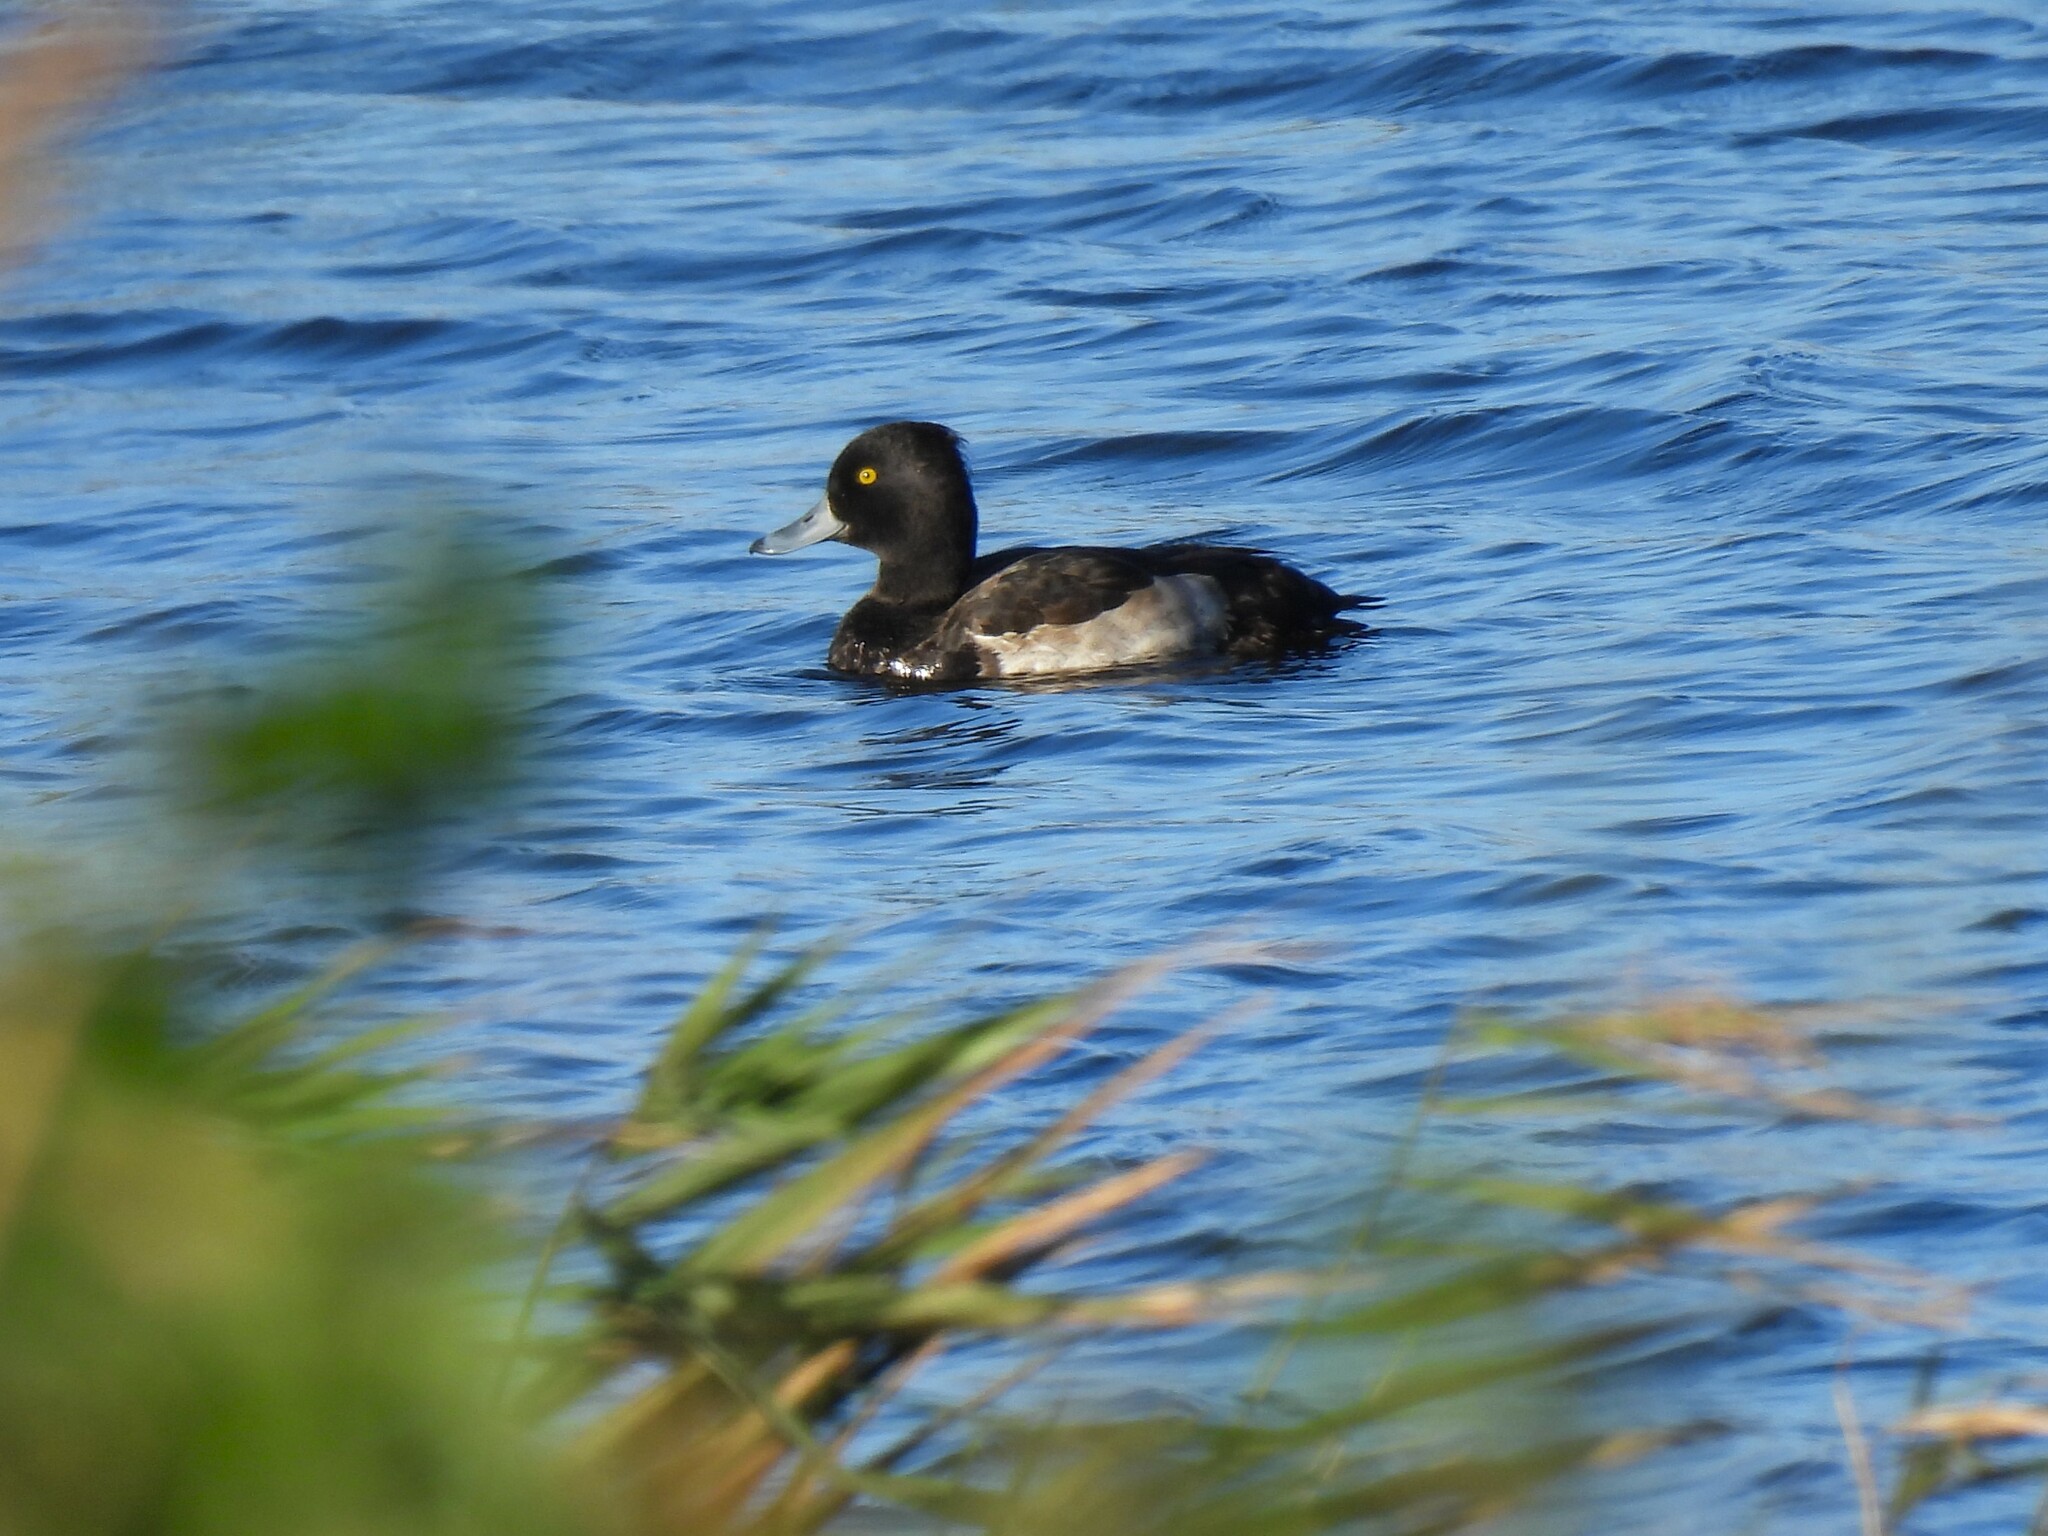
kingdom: Animalia
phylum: Chordata
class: Aves
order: Anseriformes
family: Anatidae
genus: Aythya
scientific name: Aythya fuligula
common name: Tufted duck
